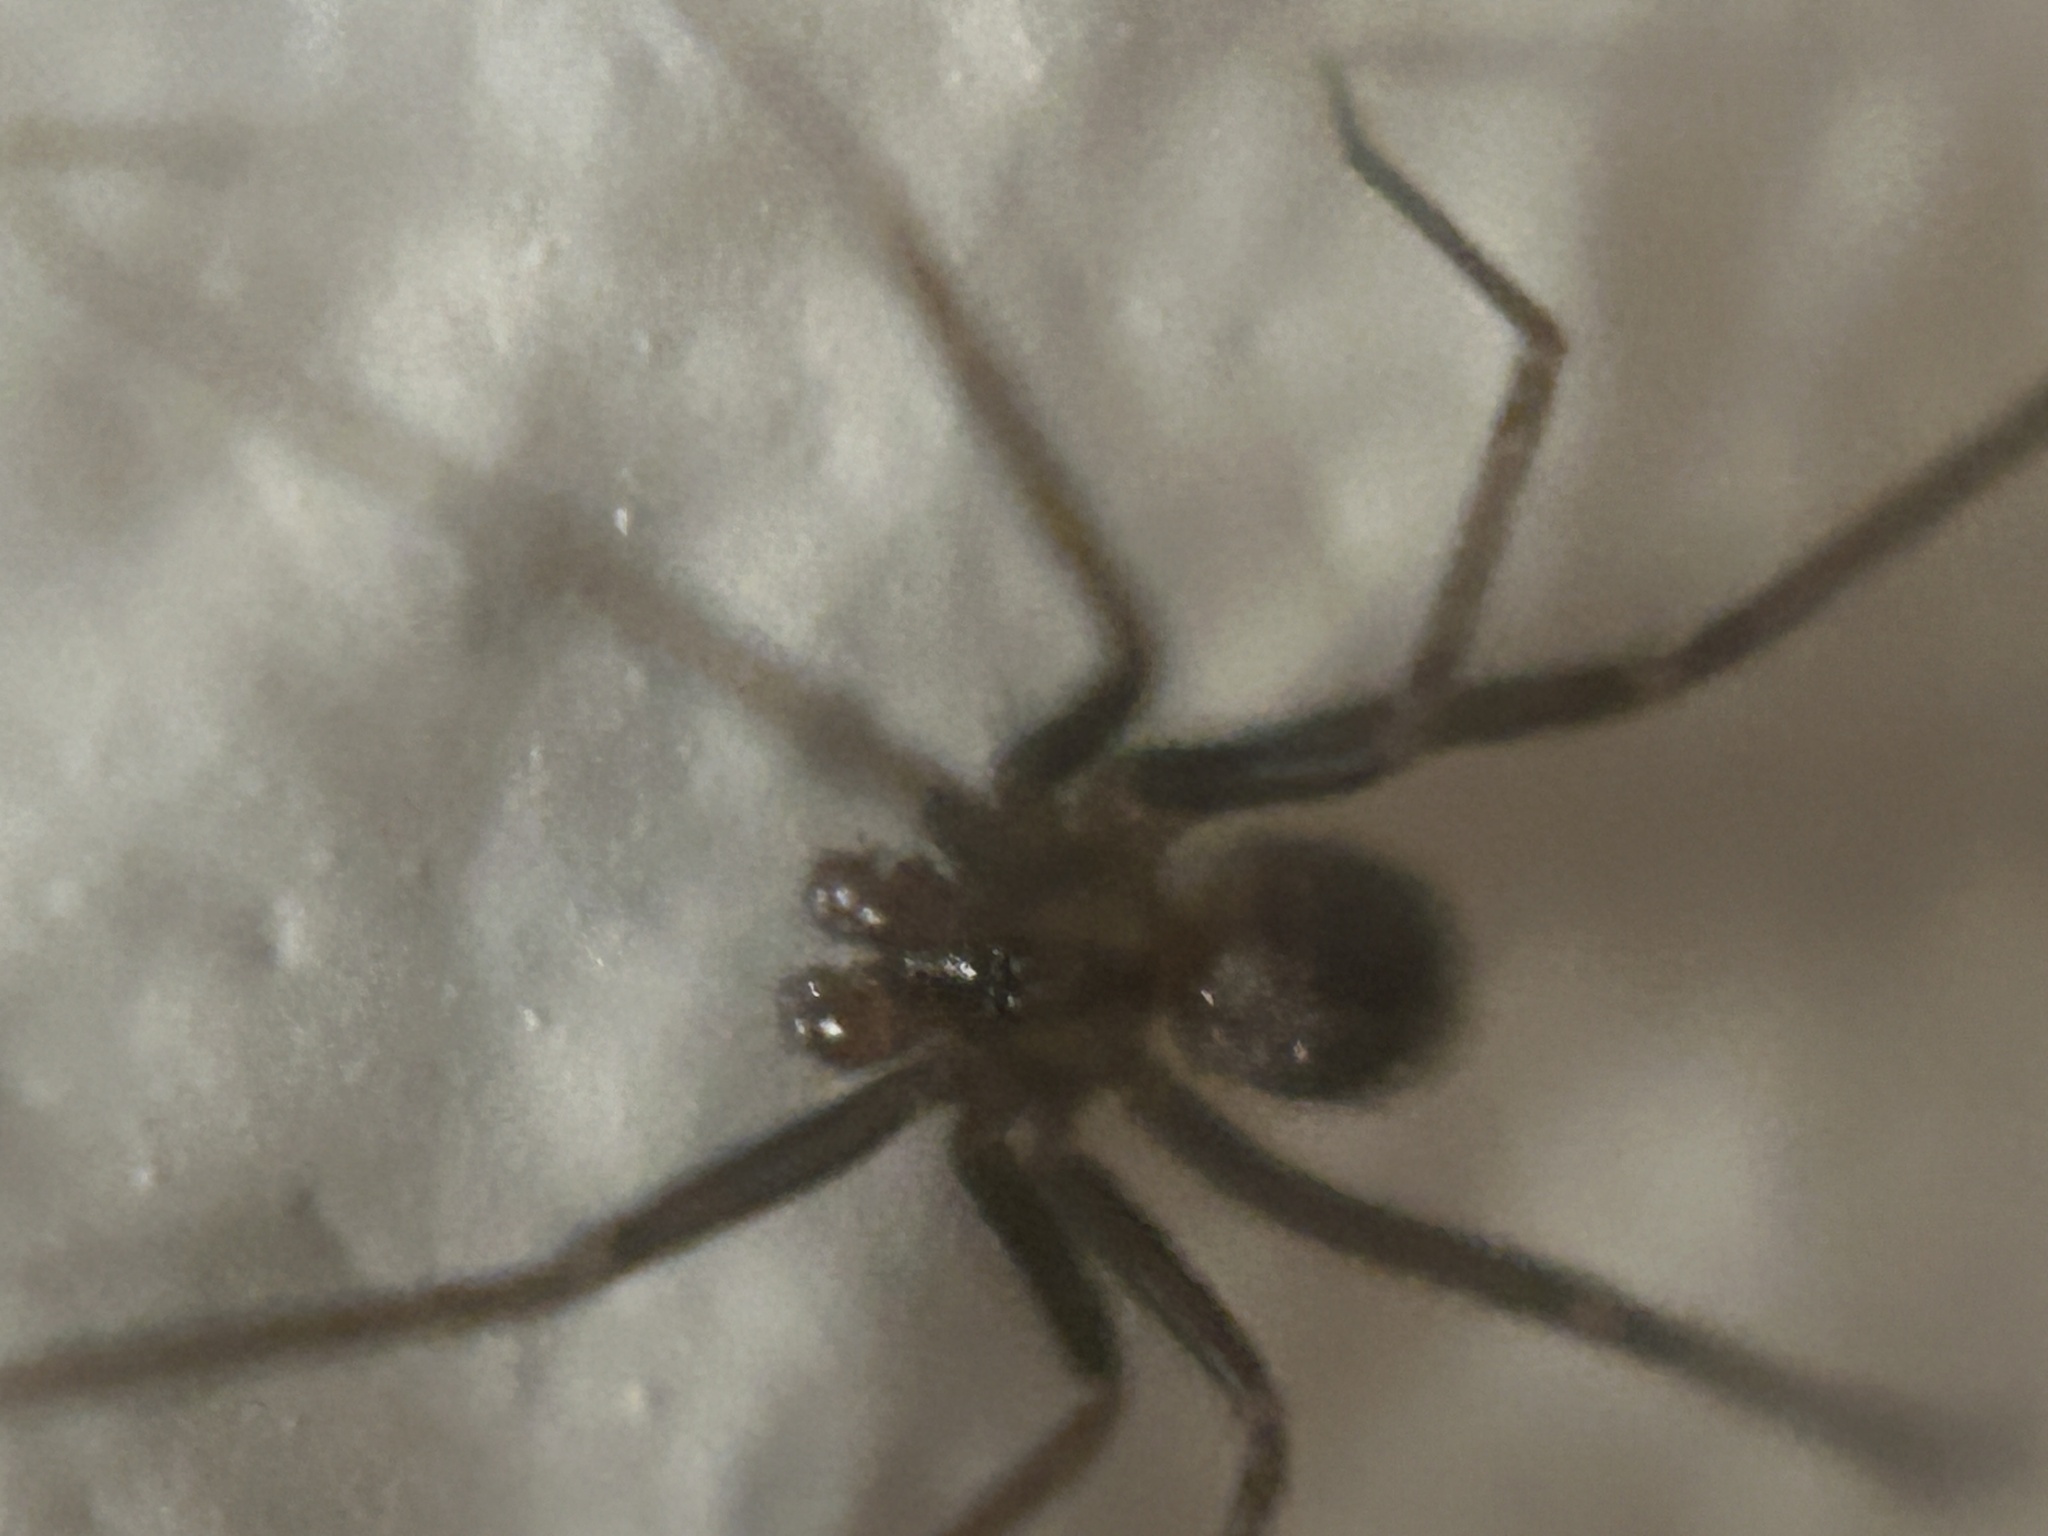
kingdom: Animalia
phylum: Arthropoda
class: Arachnida
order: Araneae
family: Pholcidae
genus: Pholcophora
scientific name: Pholcophora americana
